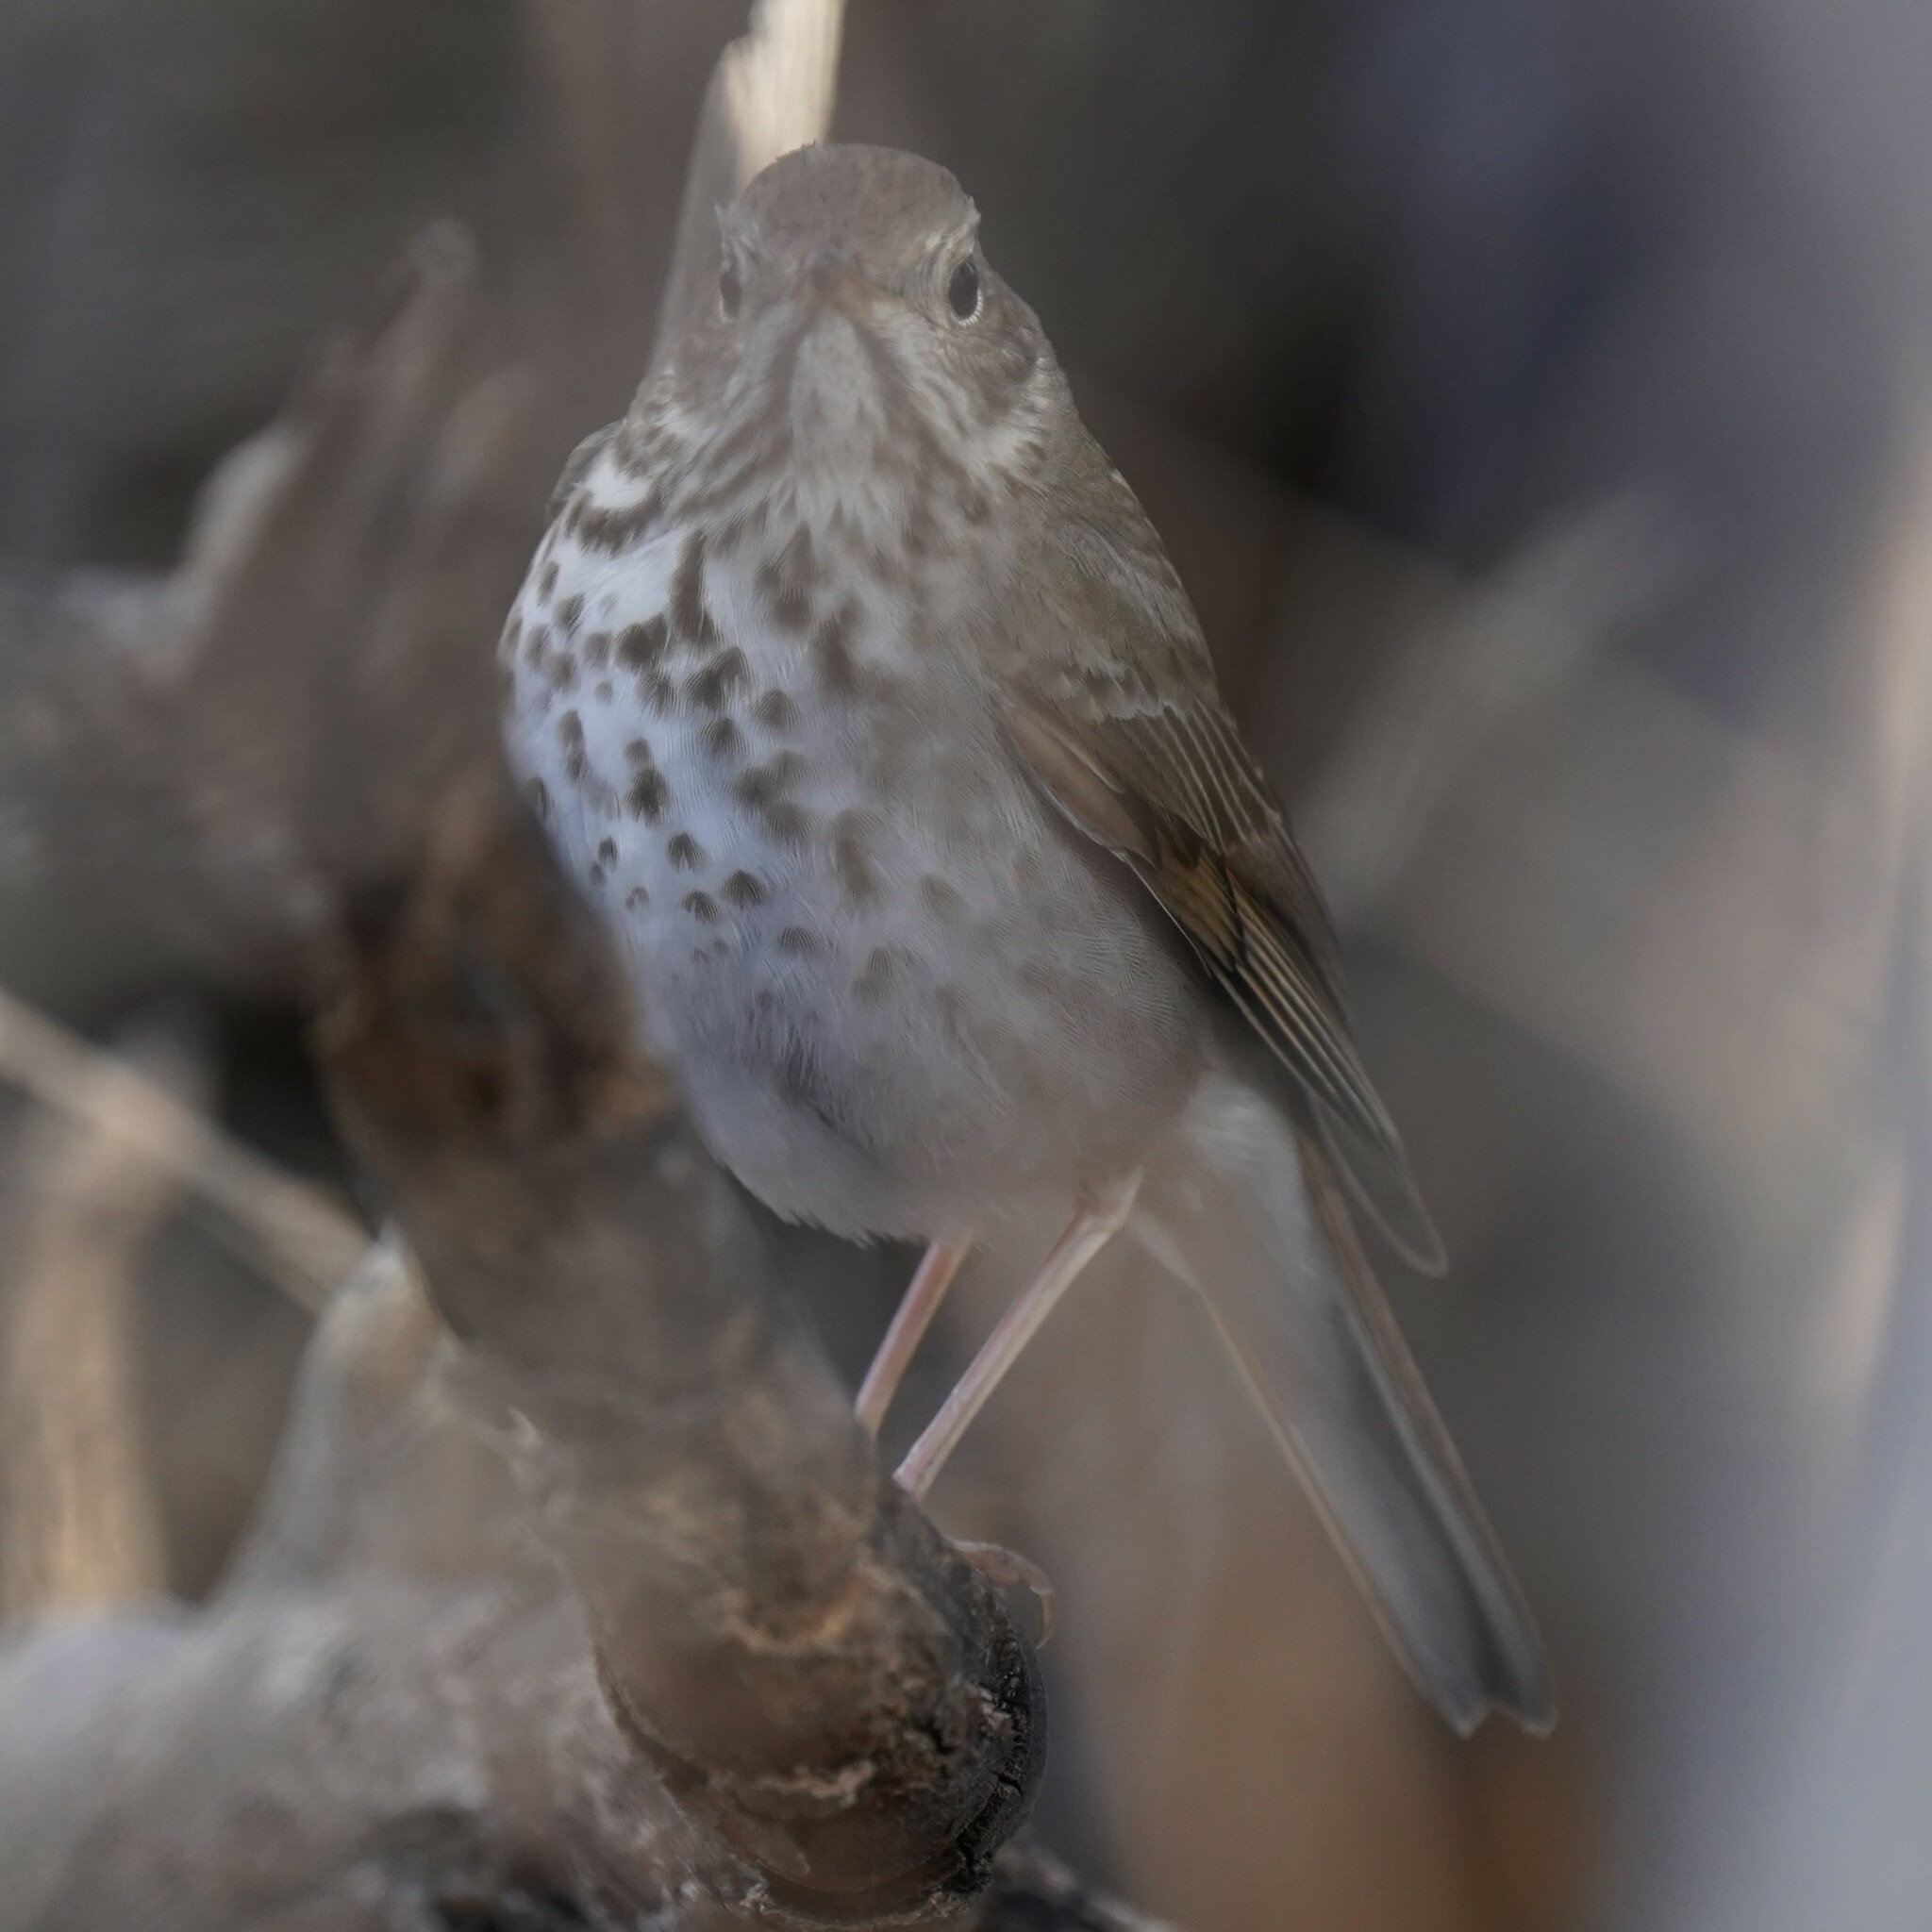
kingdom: Animalia
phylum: Chordata
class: Aves
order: Passeriformes
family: Turdidae
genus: Catharus
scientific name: Catharus guttatus
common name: Hermit thrush
